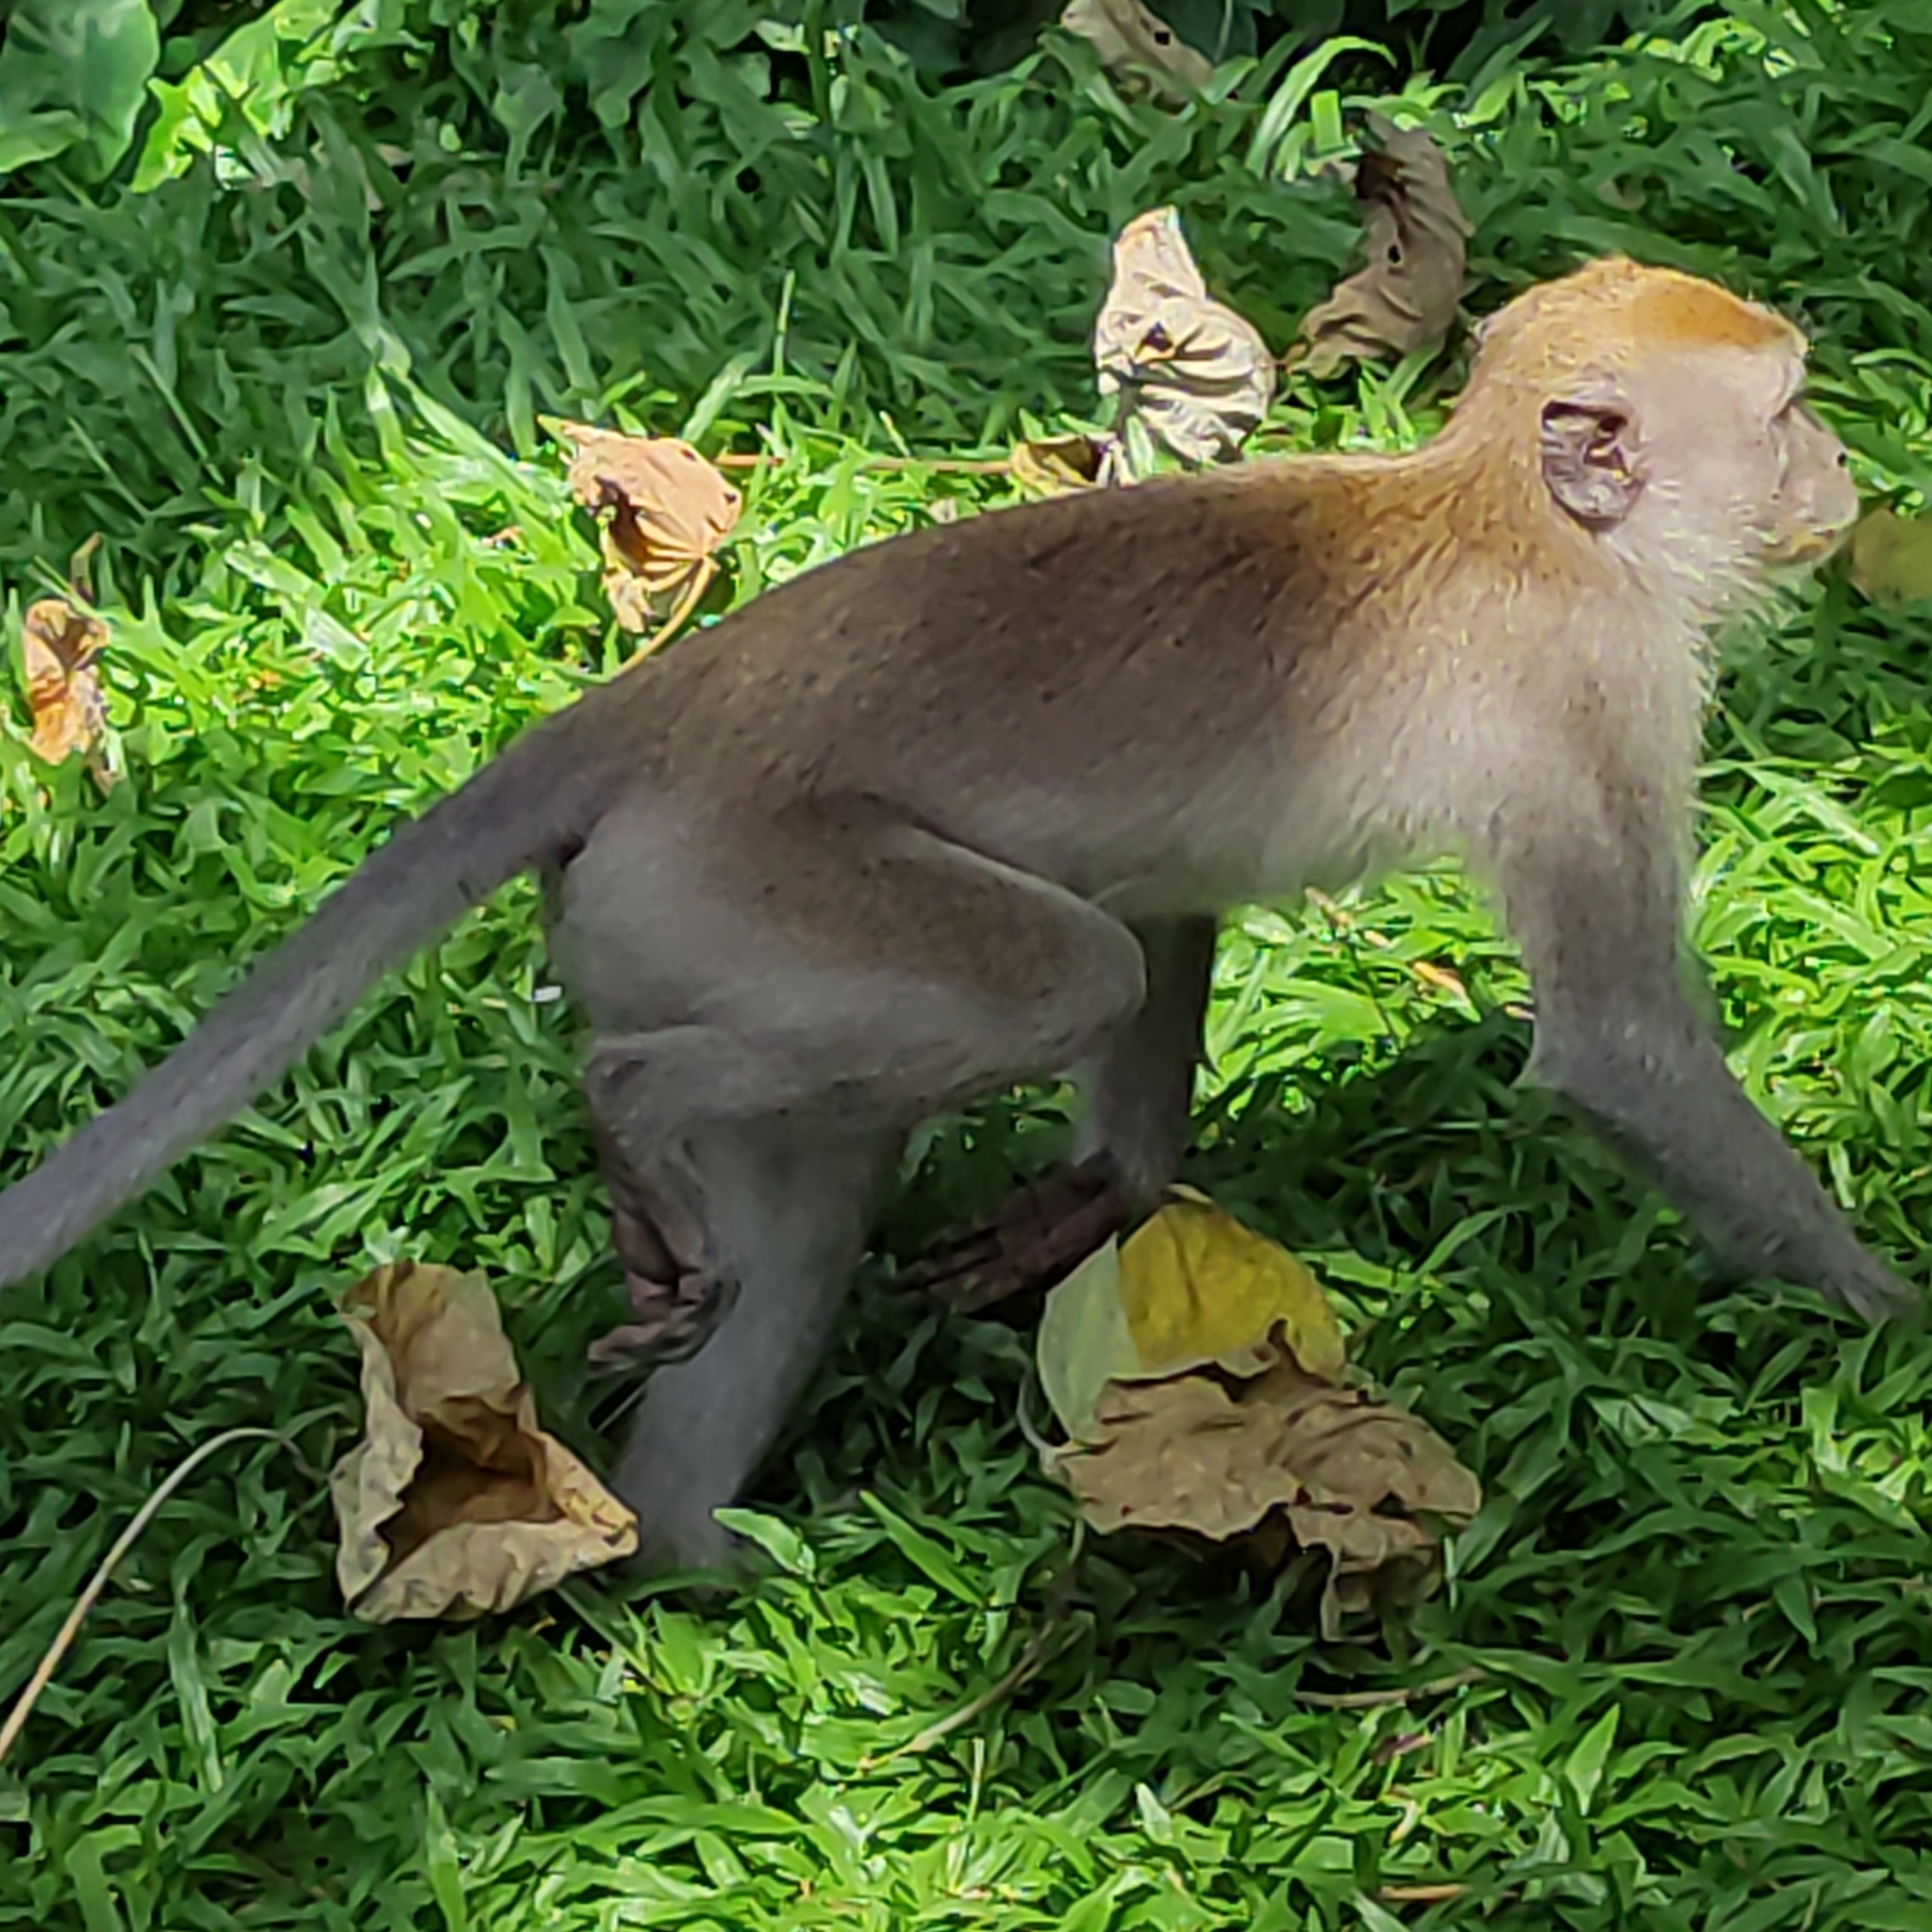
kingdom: Animalia
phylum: Chordata
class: Mammalia
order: Primates
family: Cercopithecidae
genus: Macaca
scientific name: Macaca fascicularis
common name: Crab-eating macaque
